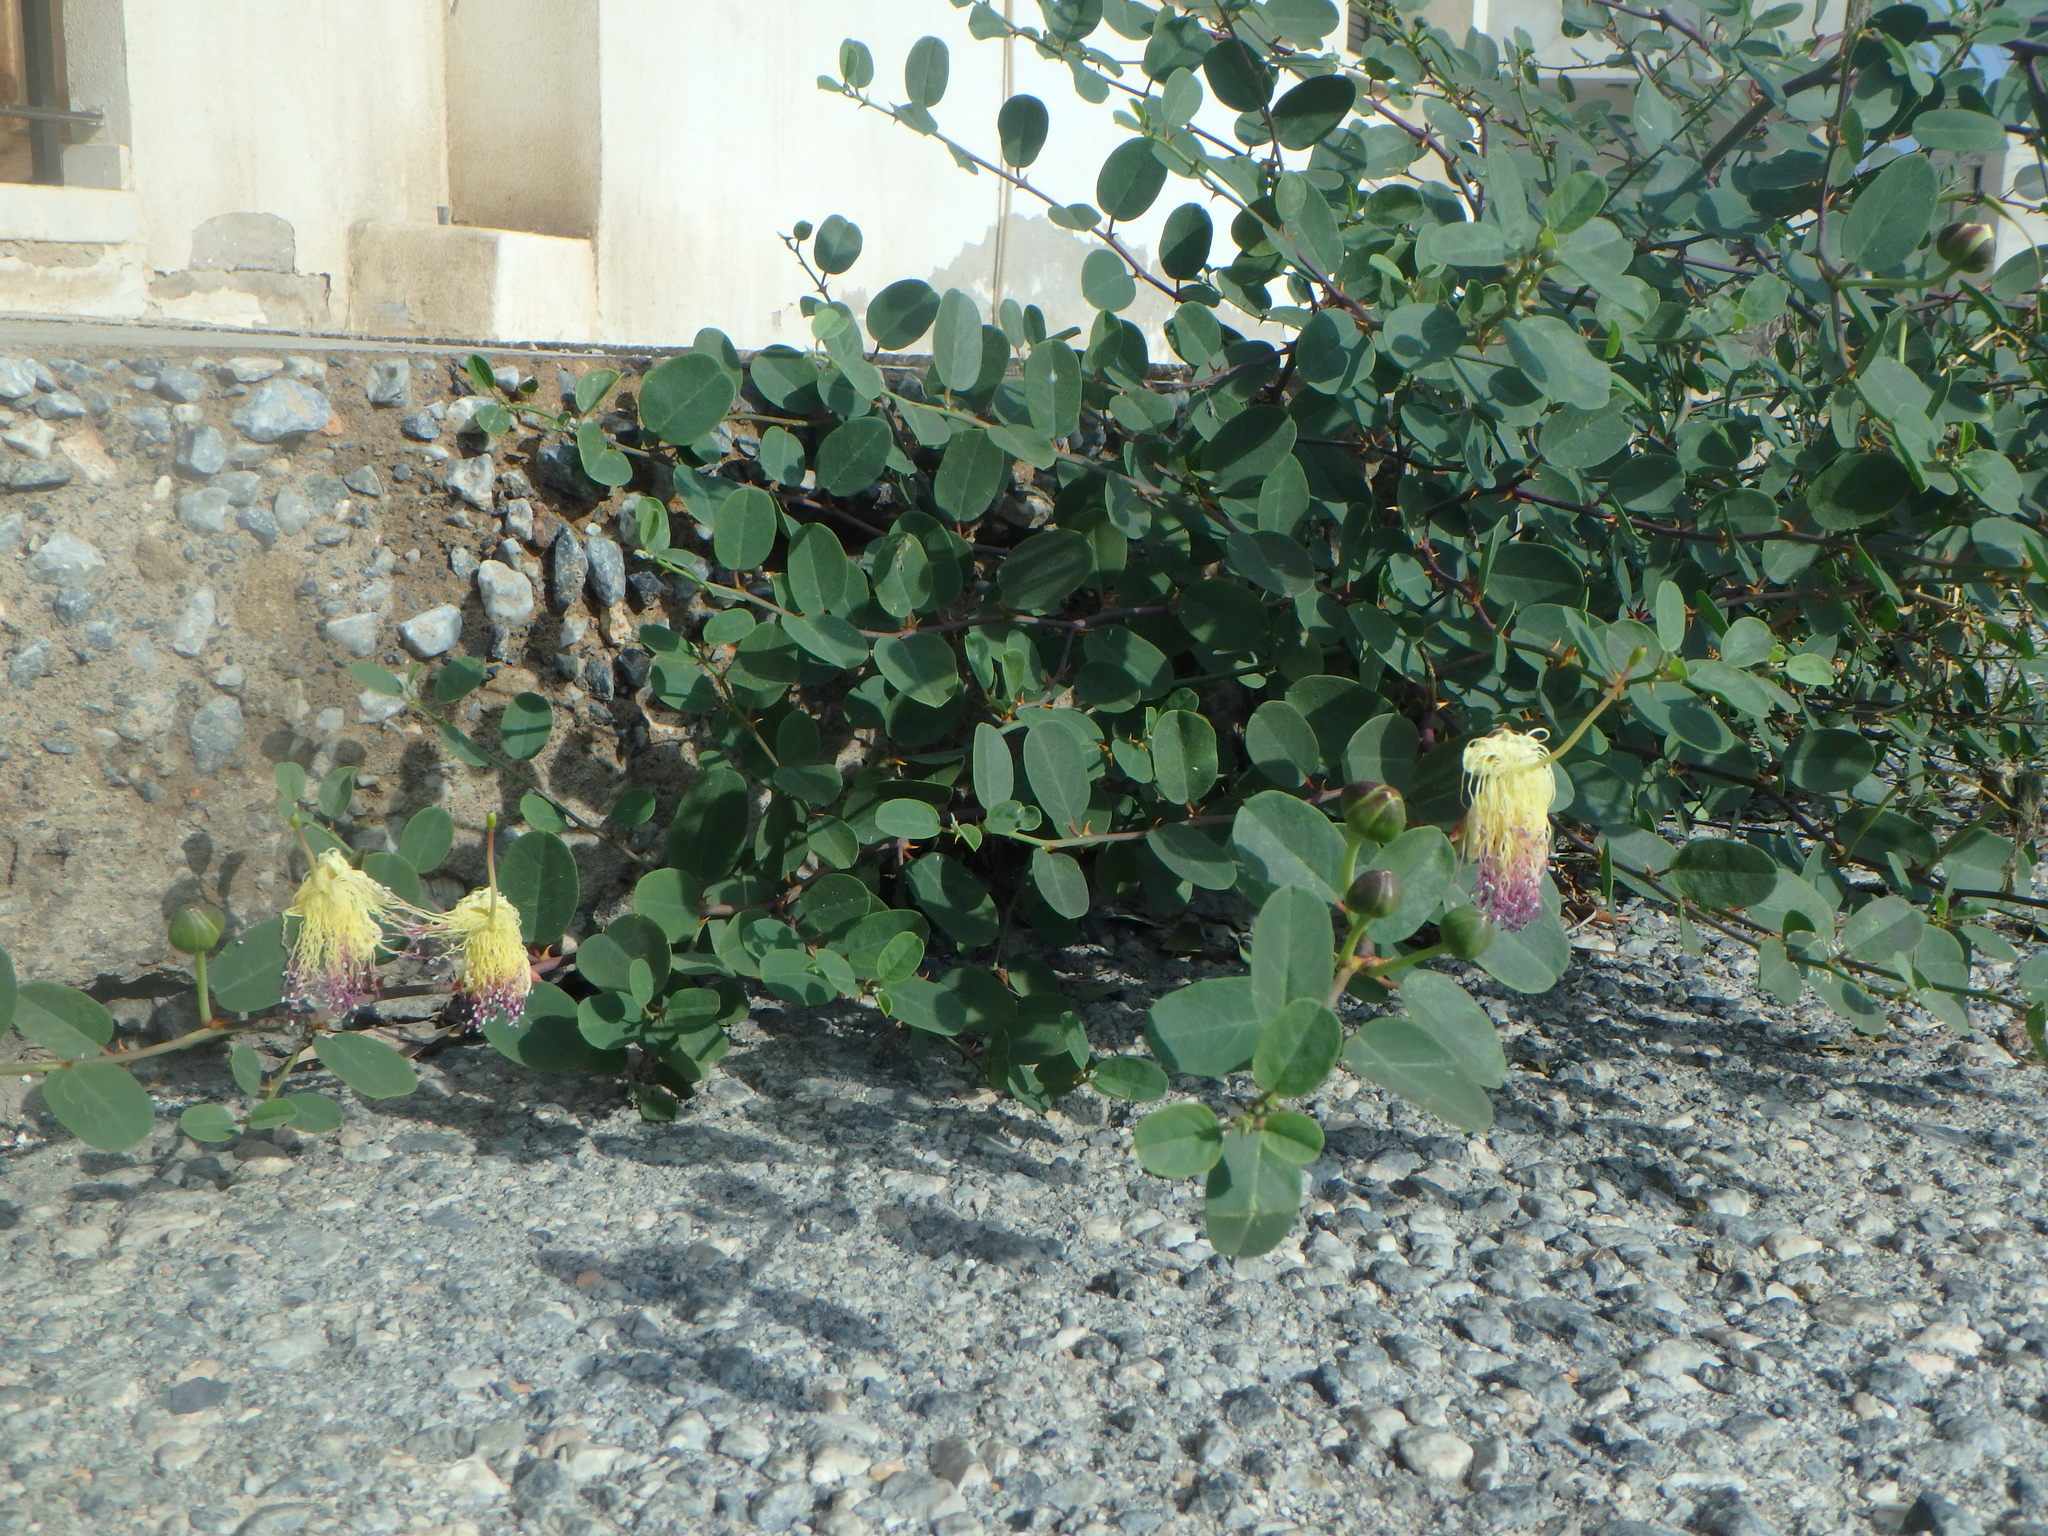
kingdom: Plantae
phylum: Tracheophyta
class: Magnoliopsida
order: Brassicales
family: Capparaceae
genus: Capparis
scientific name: Capparis spinosa
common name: Caper
